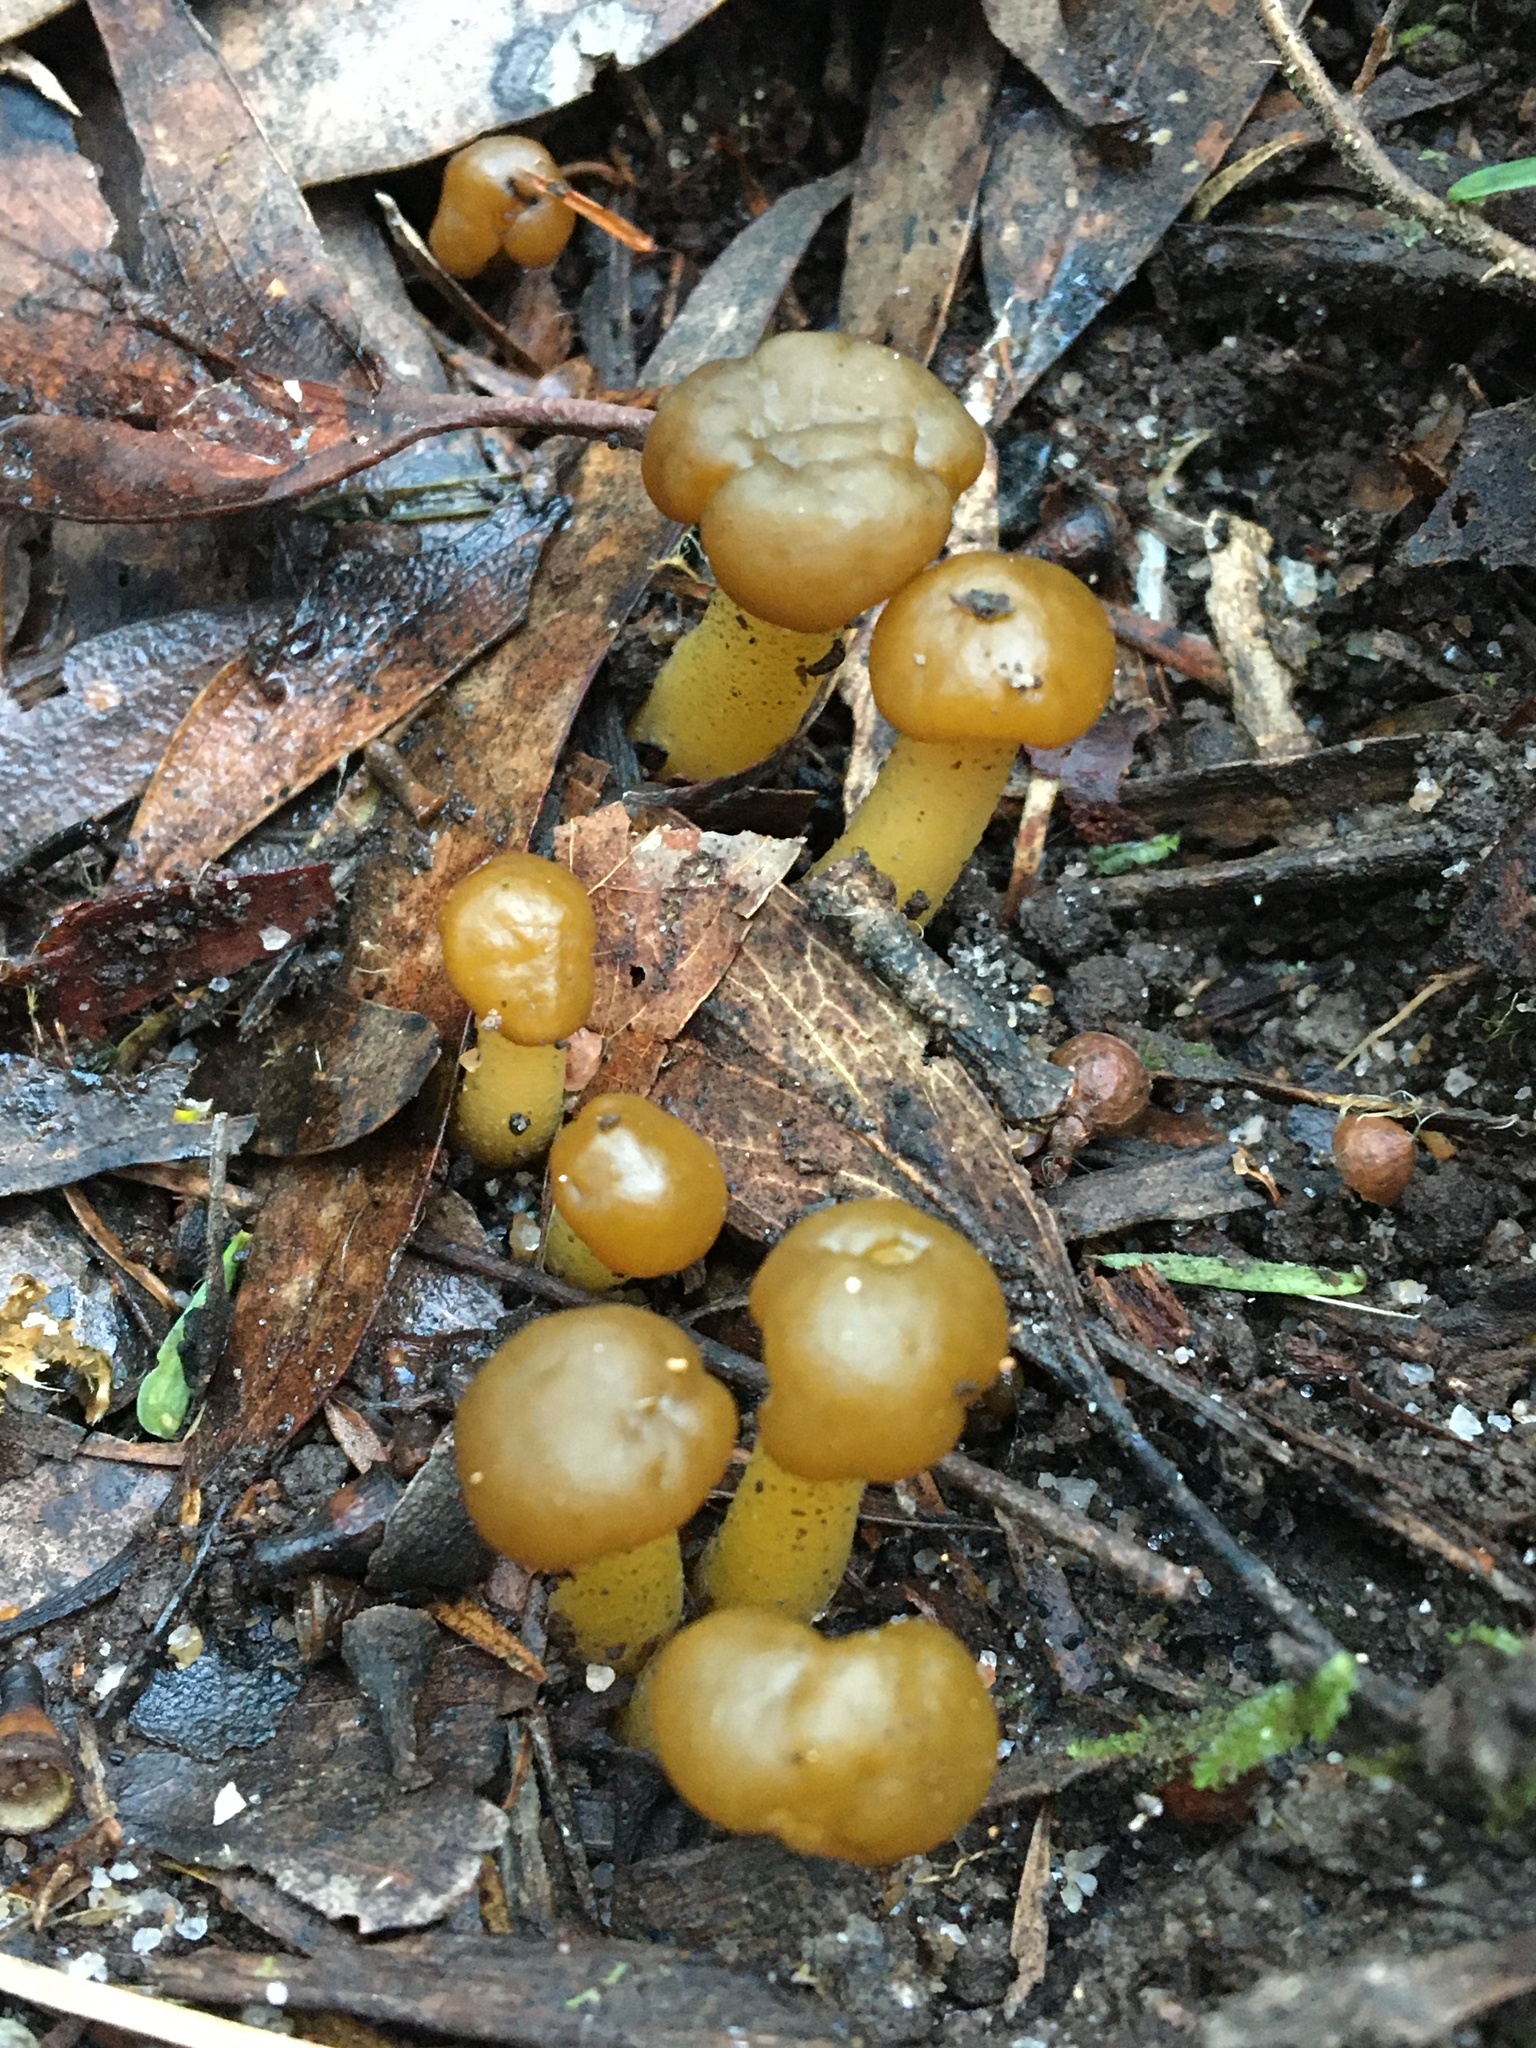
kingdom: Fungi
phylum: Ascomycota
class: Leotiomycetes
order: Leotiales
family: Leotiaceae
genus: Leotia
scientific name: Leotia lubrica
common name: Jellybaby
